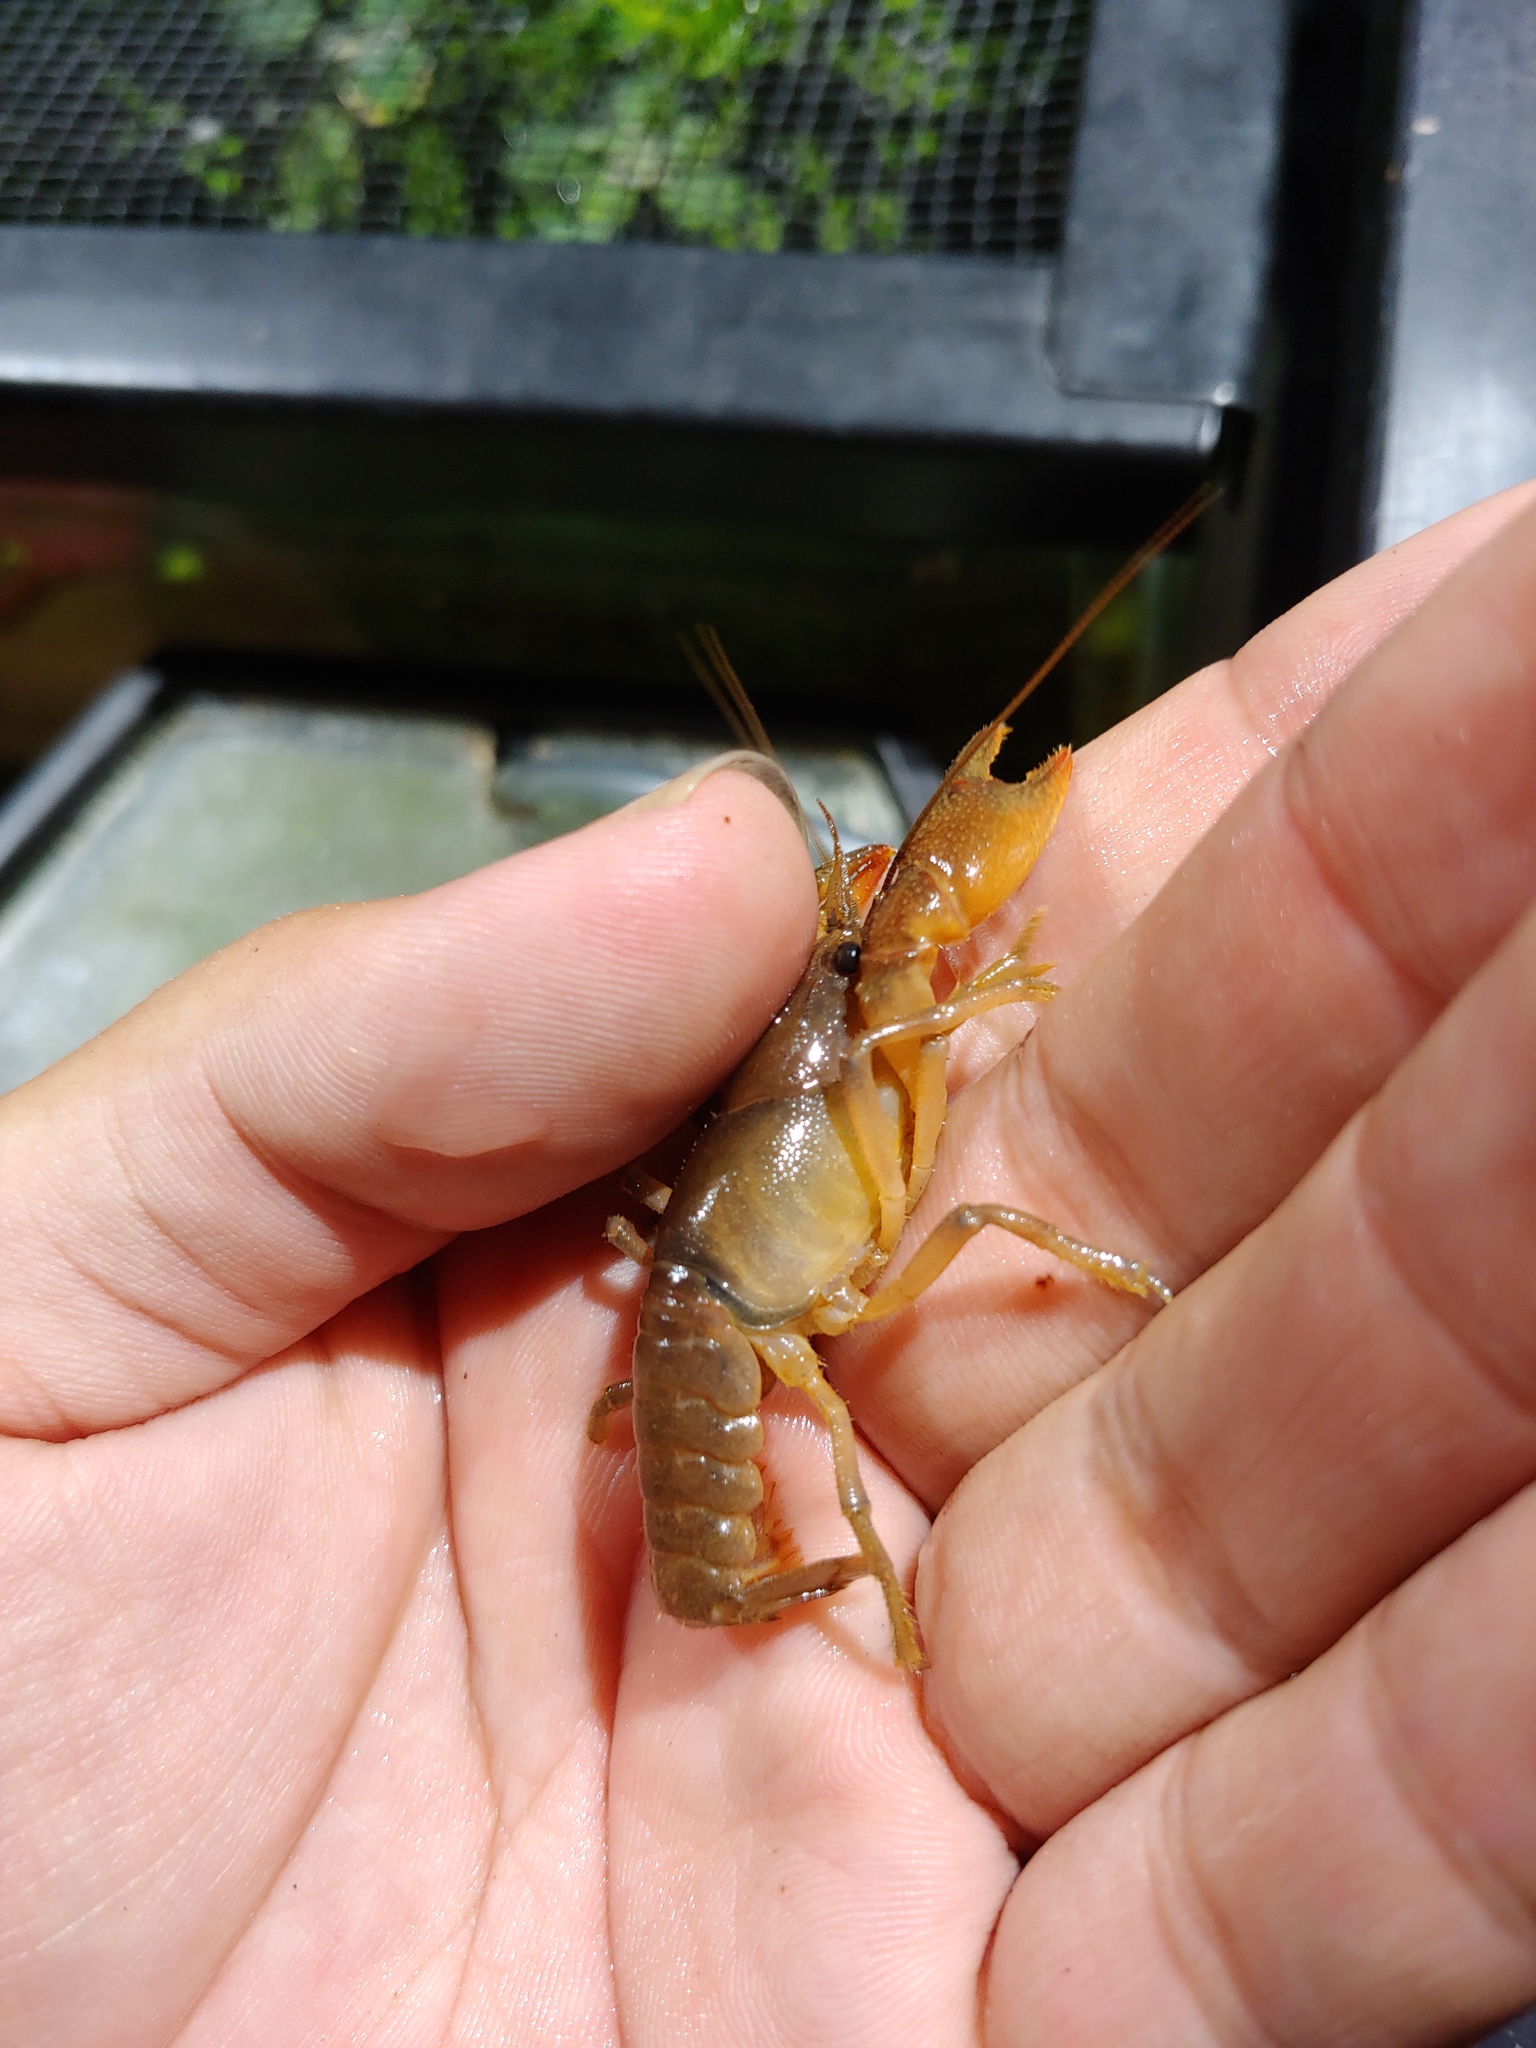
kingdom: Animalia
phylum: Arthropoda
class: Malacostraca
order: Decapoda
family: Cambaridae
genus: Lacunicambarus
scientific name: Lacunicambarus acanthura
